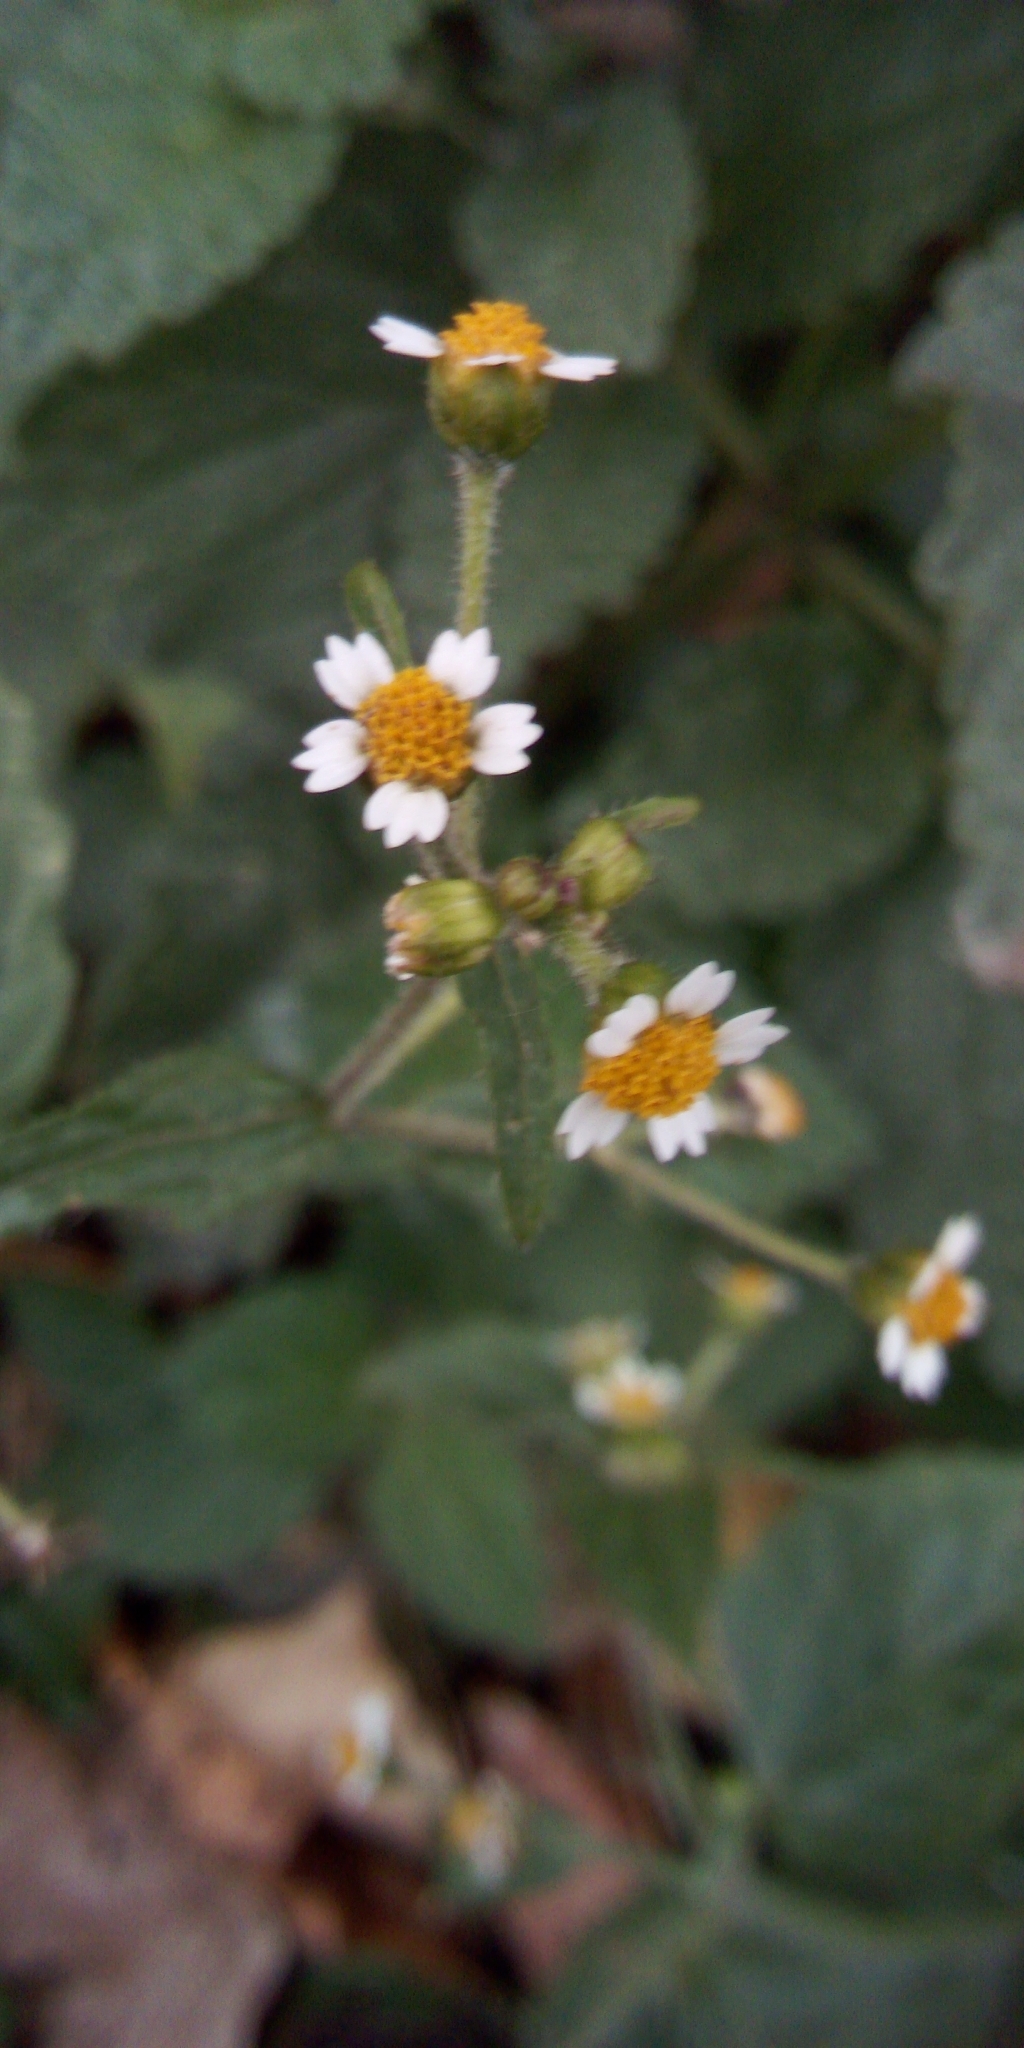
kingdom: Plantae
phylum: Tracheophyta
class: Magnoliopsida
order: Asterales
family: Asteraceae
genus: Galinsoga
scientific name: Galinsoga quadriradiata
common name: Shaggy soldier
